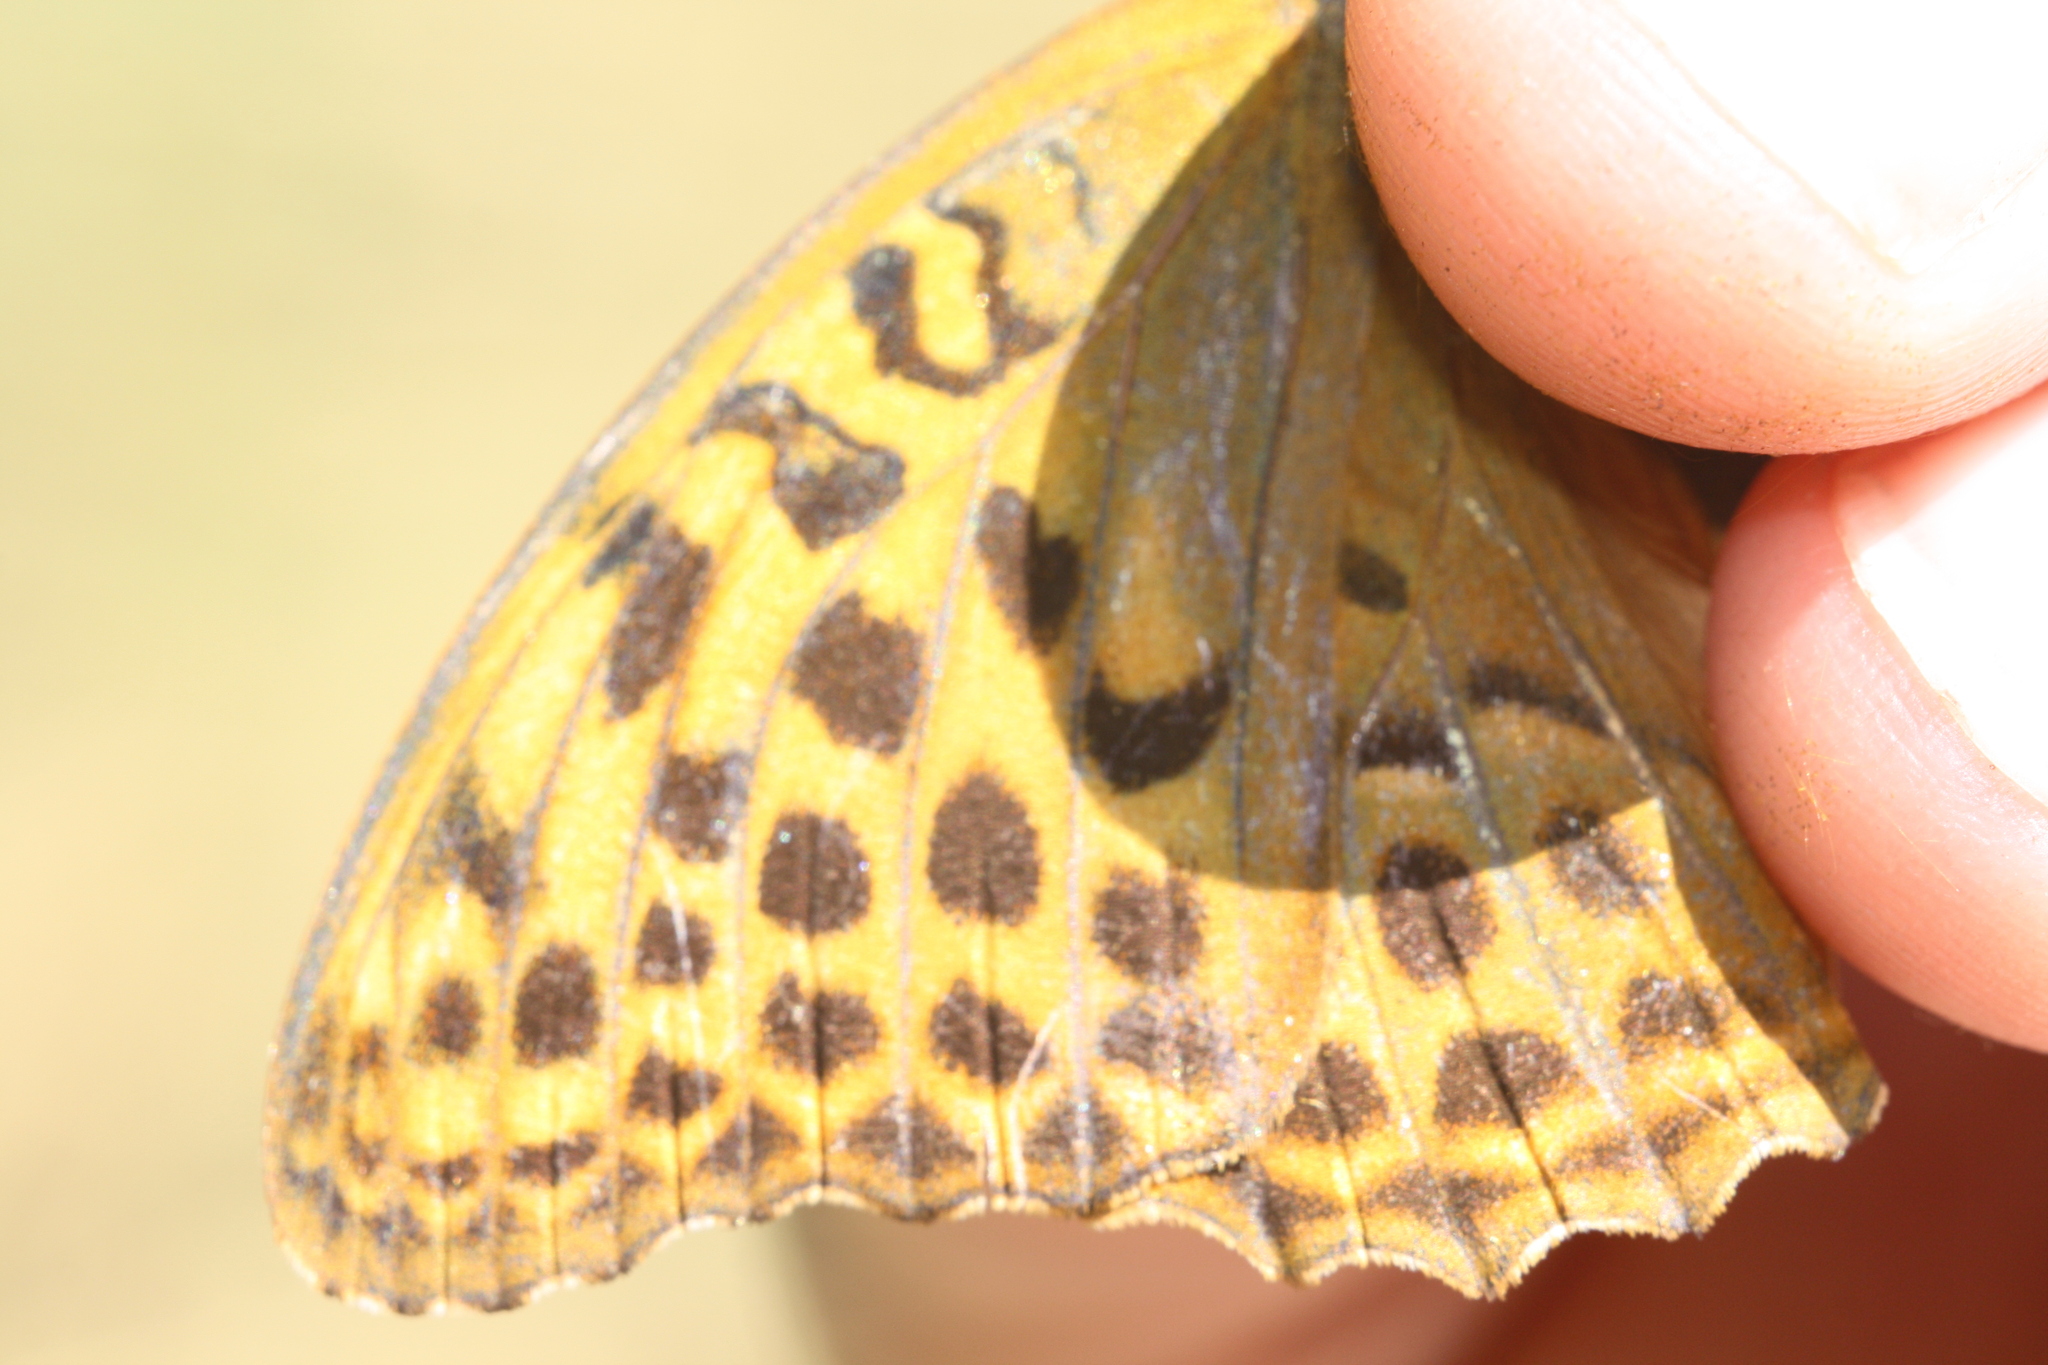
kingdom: Animalia
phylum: Arthropoda
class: Insecta
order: Lepidoptera
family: Nymphalidae
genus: Argynnis
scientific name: Argynnis paphia
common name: Silver-washed fritillary
